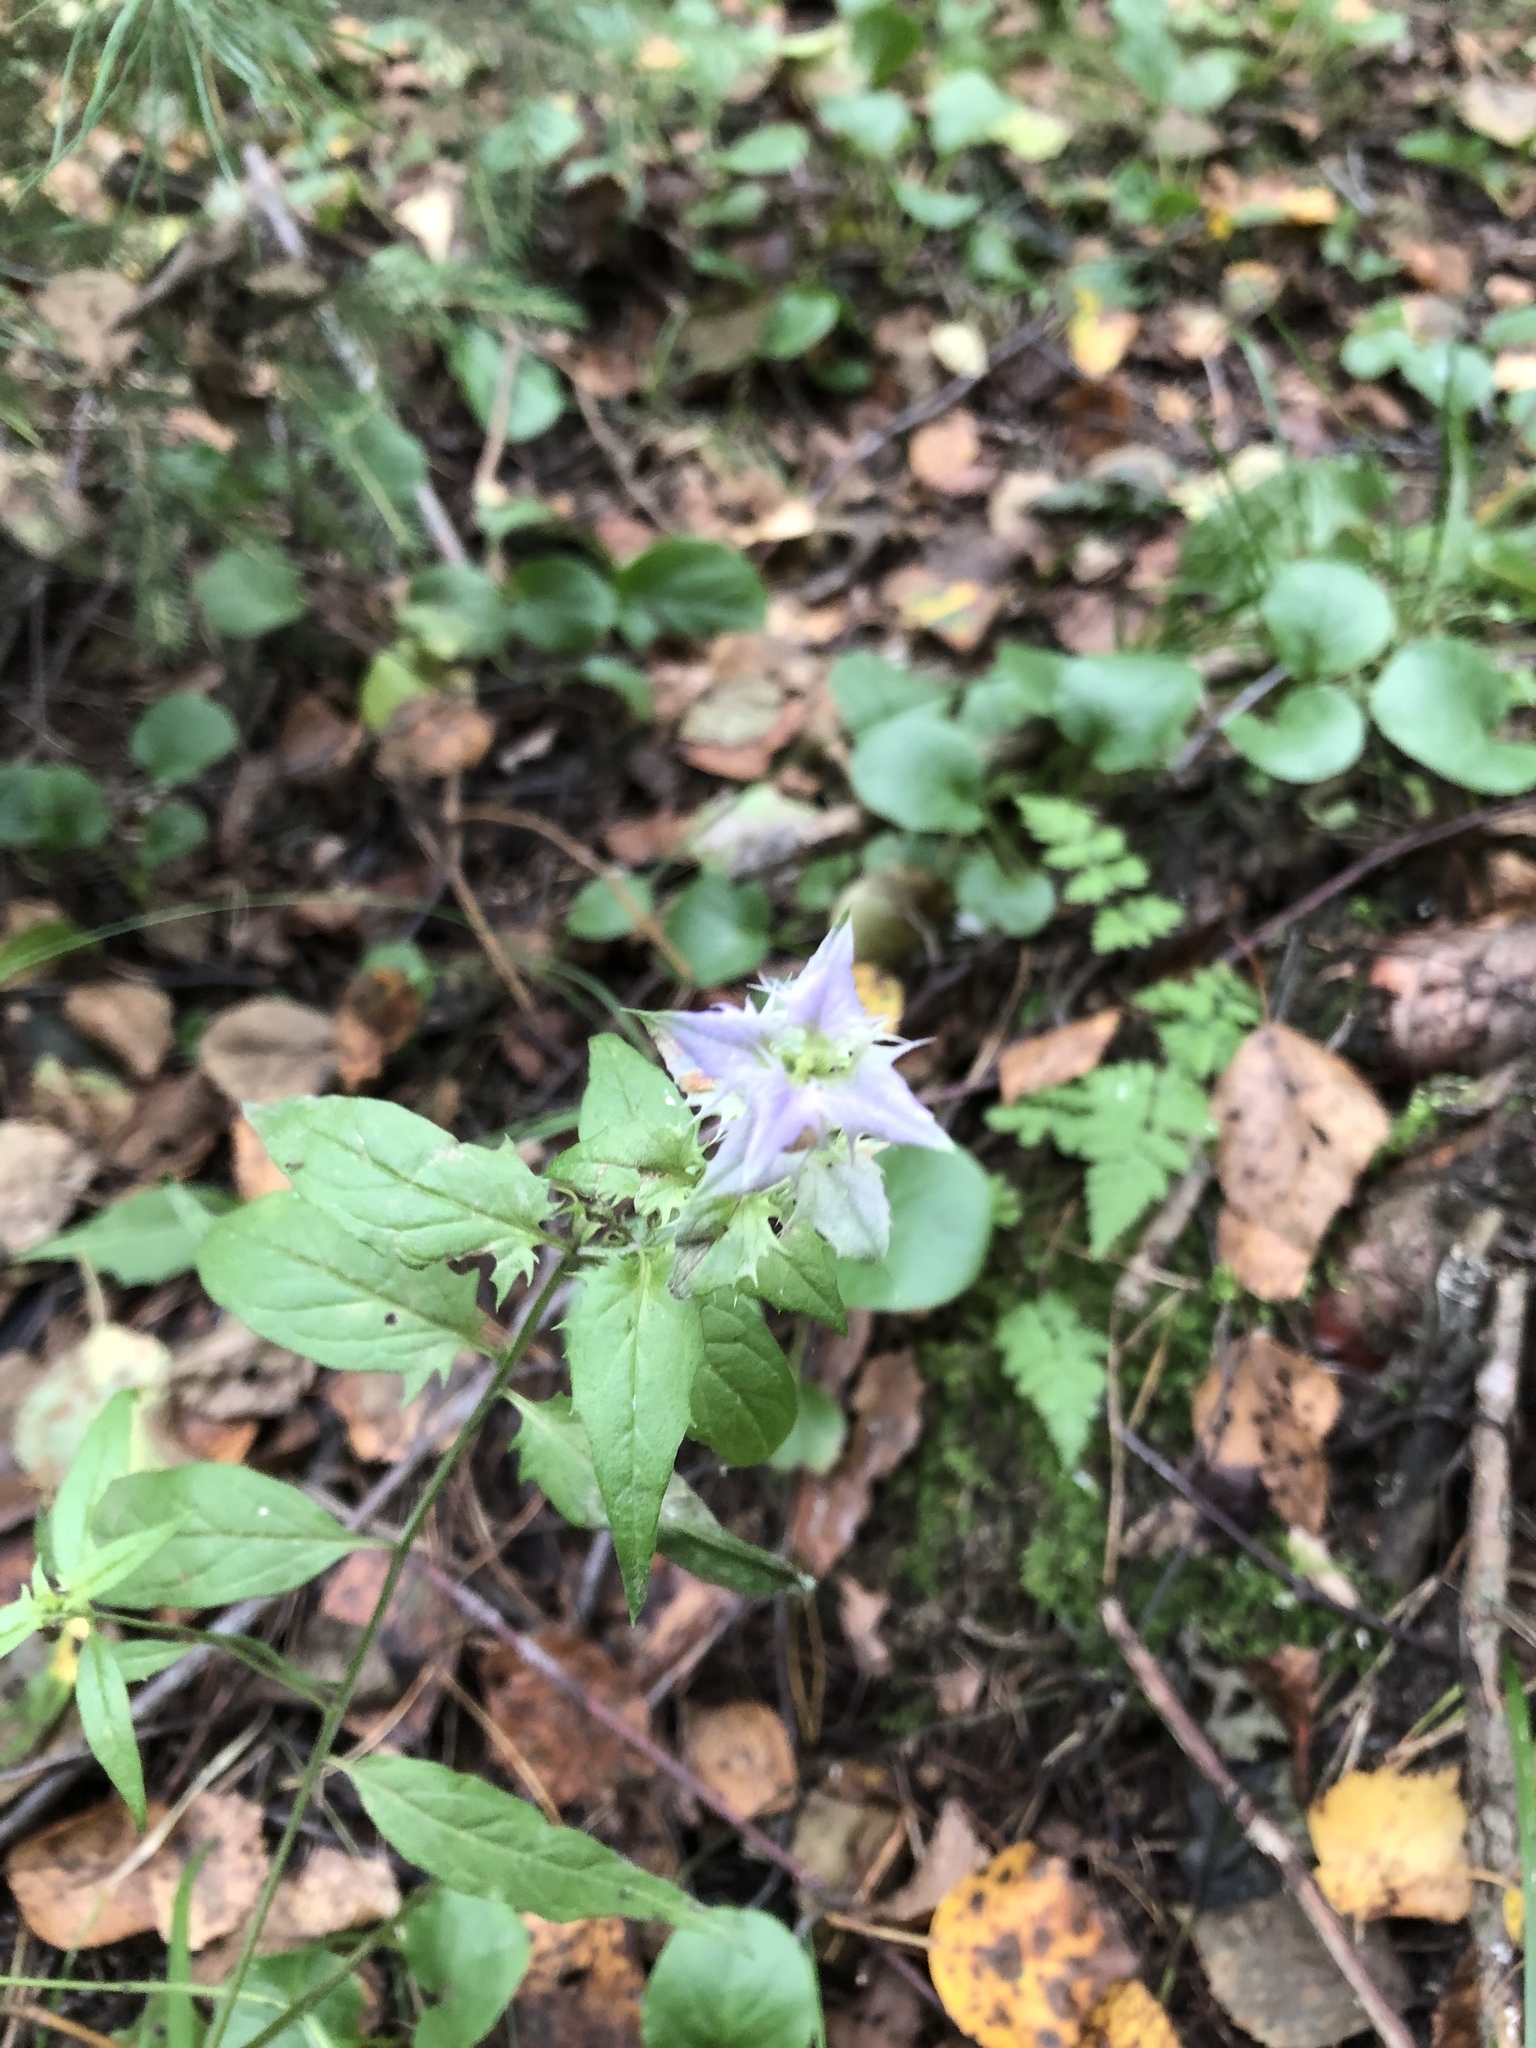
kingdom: Plantae
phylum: Tracheophyta
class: Magnoliopsida
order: Lamiales
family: Orobanchaceae
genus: Melampyrum
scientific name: Melampyrum nemorosum
